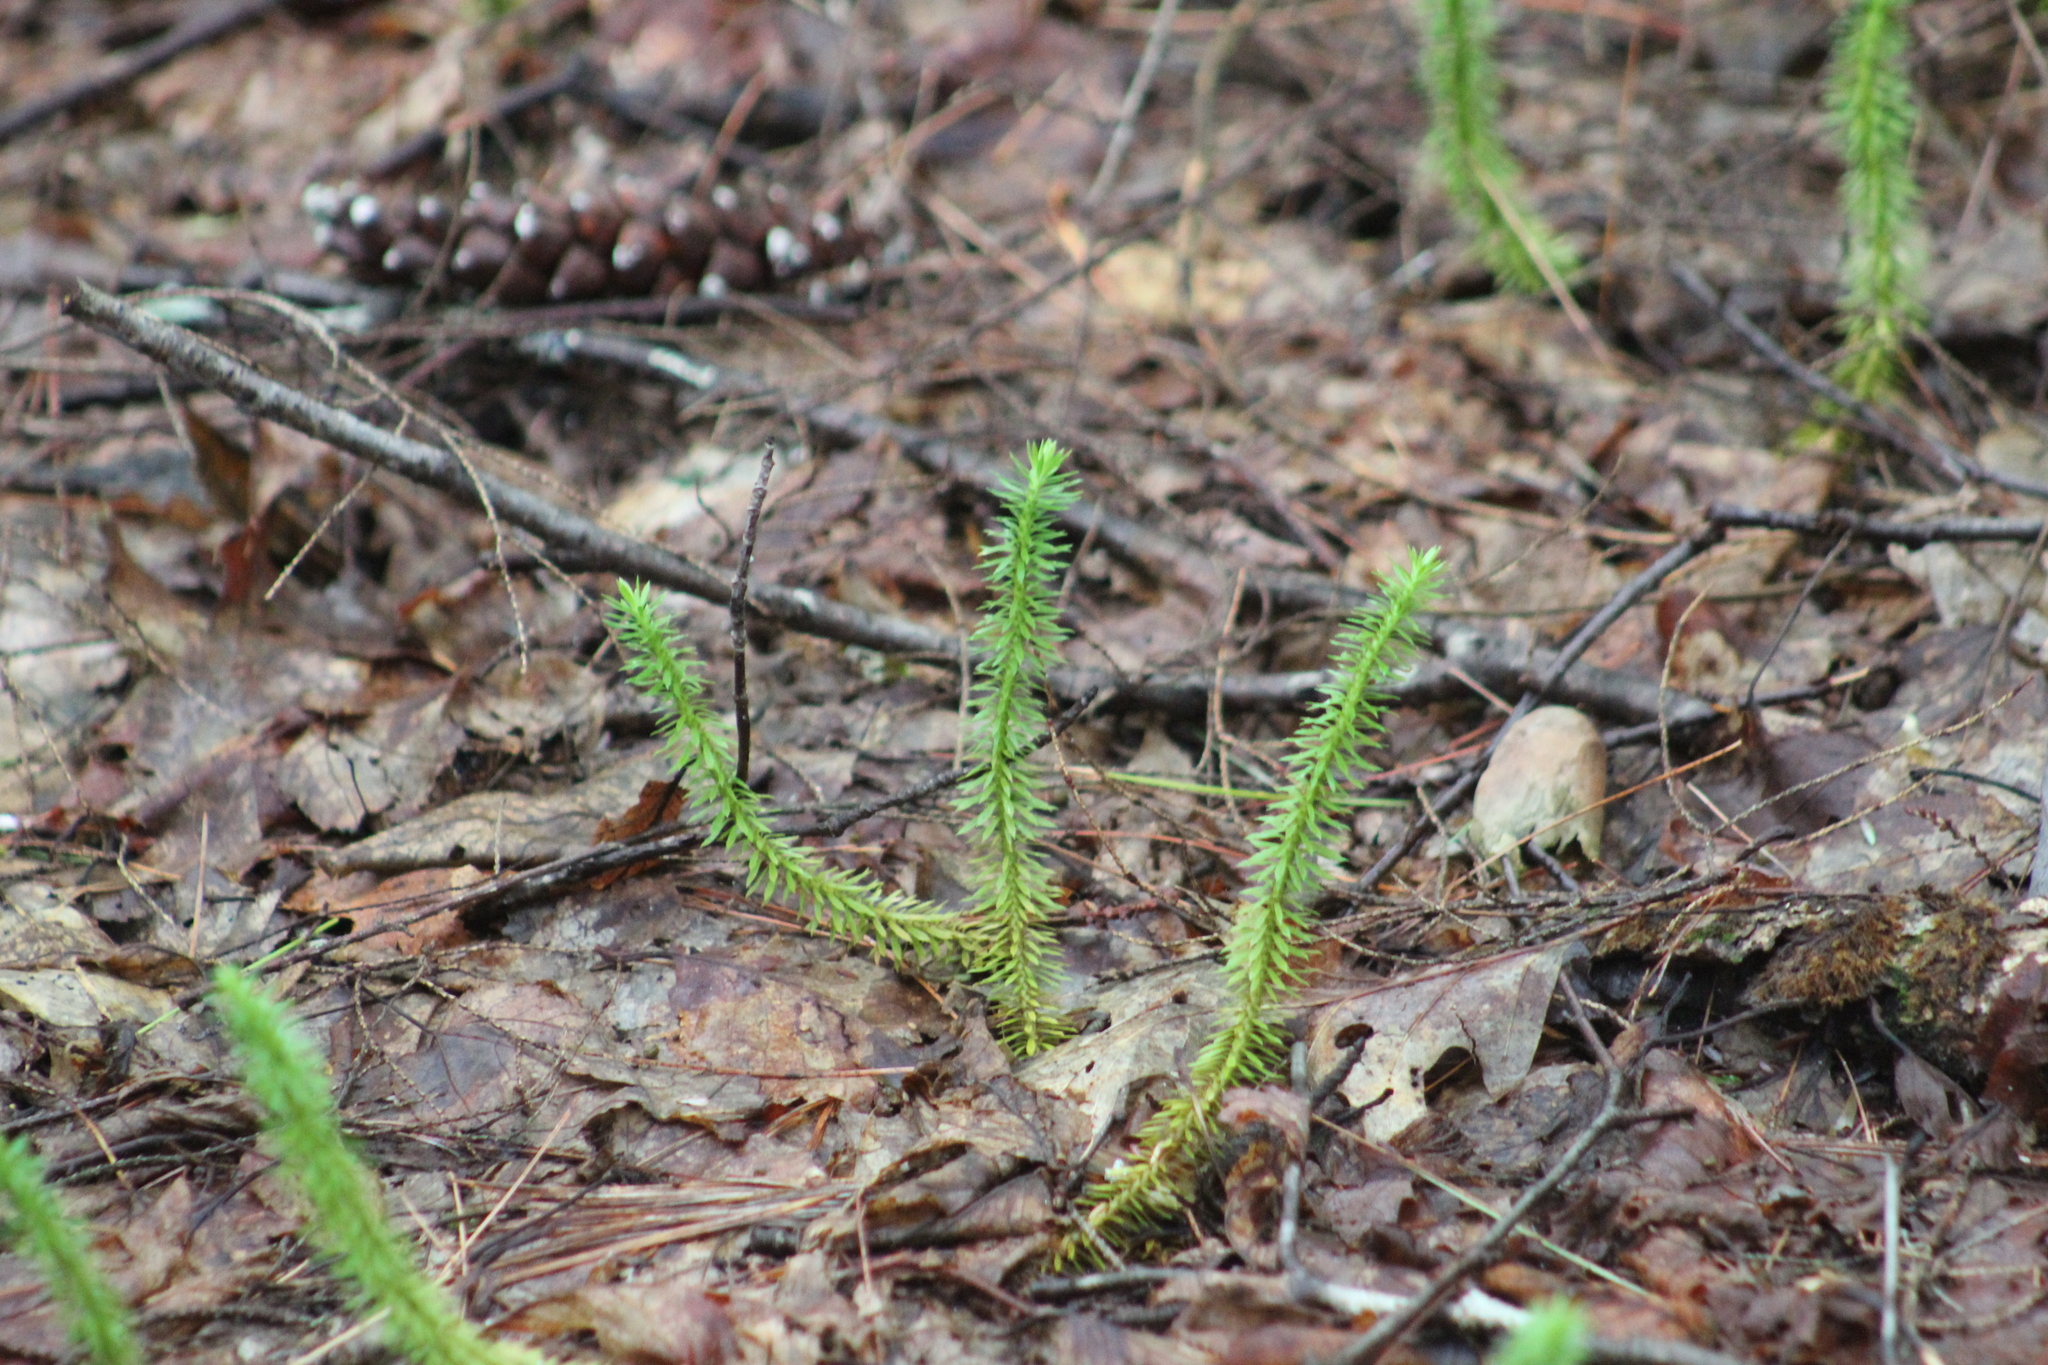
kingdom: Plantae
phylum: Tracheophyta
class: Lycopodiopsida
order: Lycopodiales
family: Lycopodiaceae
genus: Spinulum
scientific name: Spinulum annotinum
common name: Interrupted club-moss
